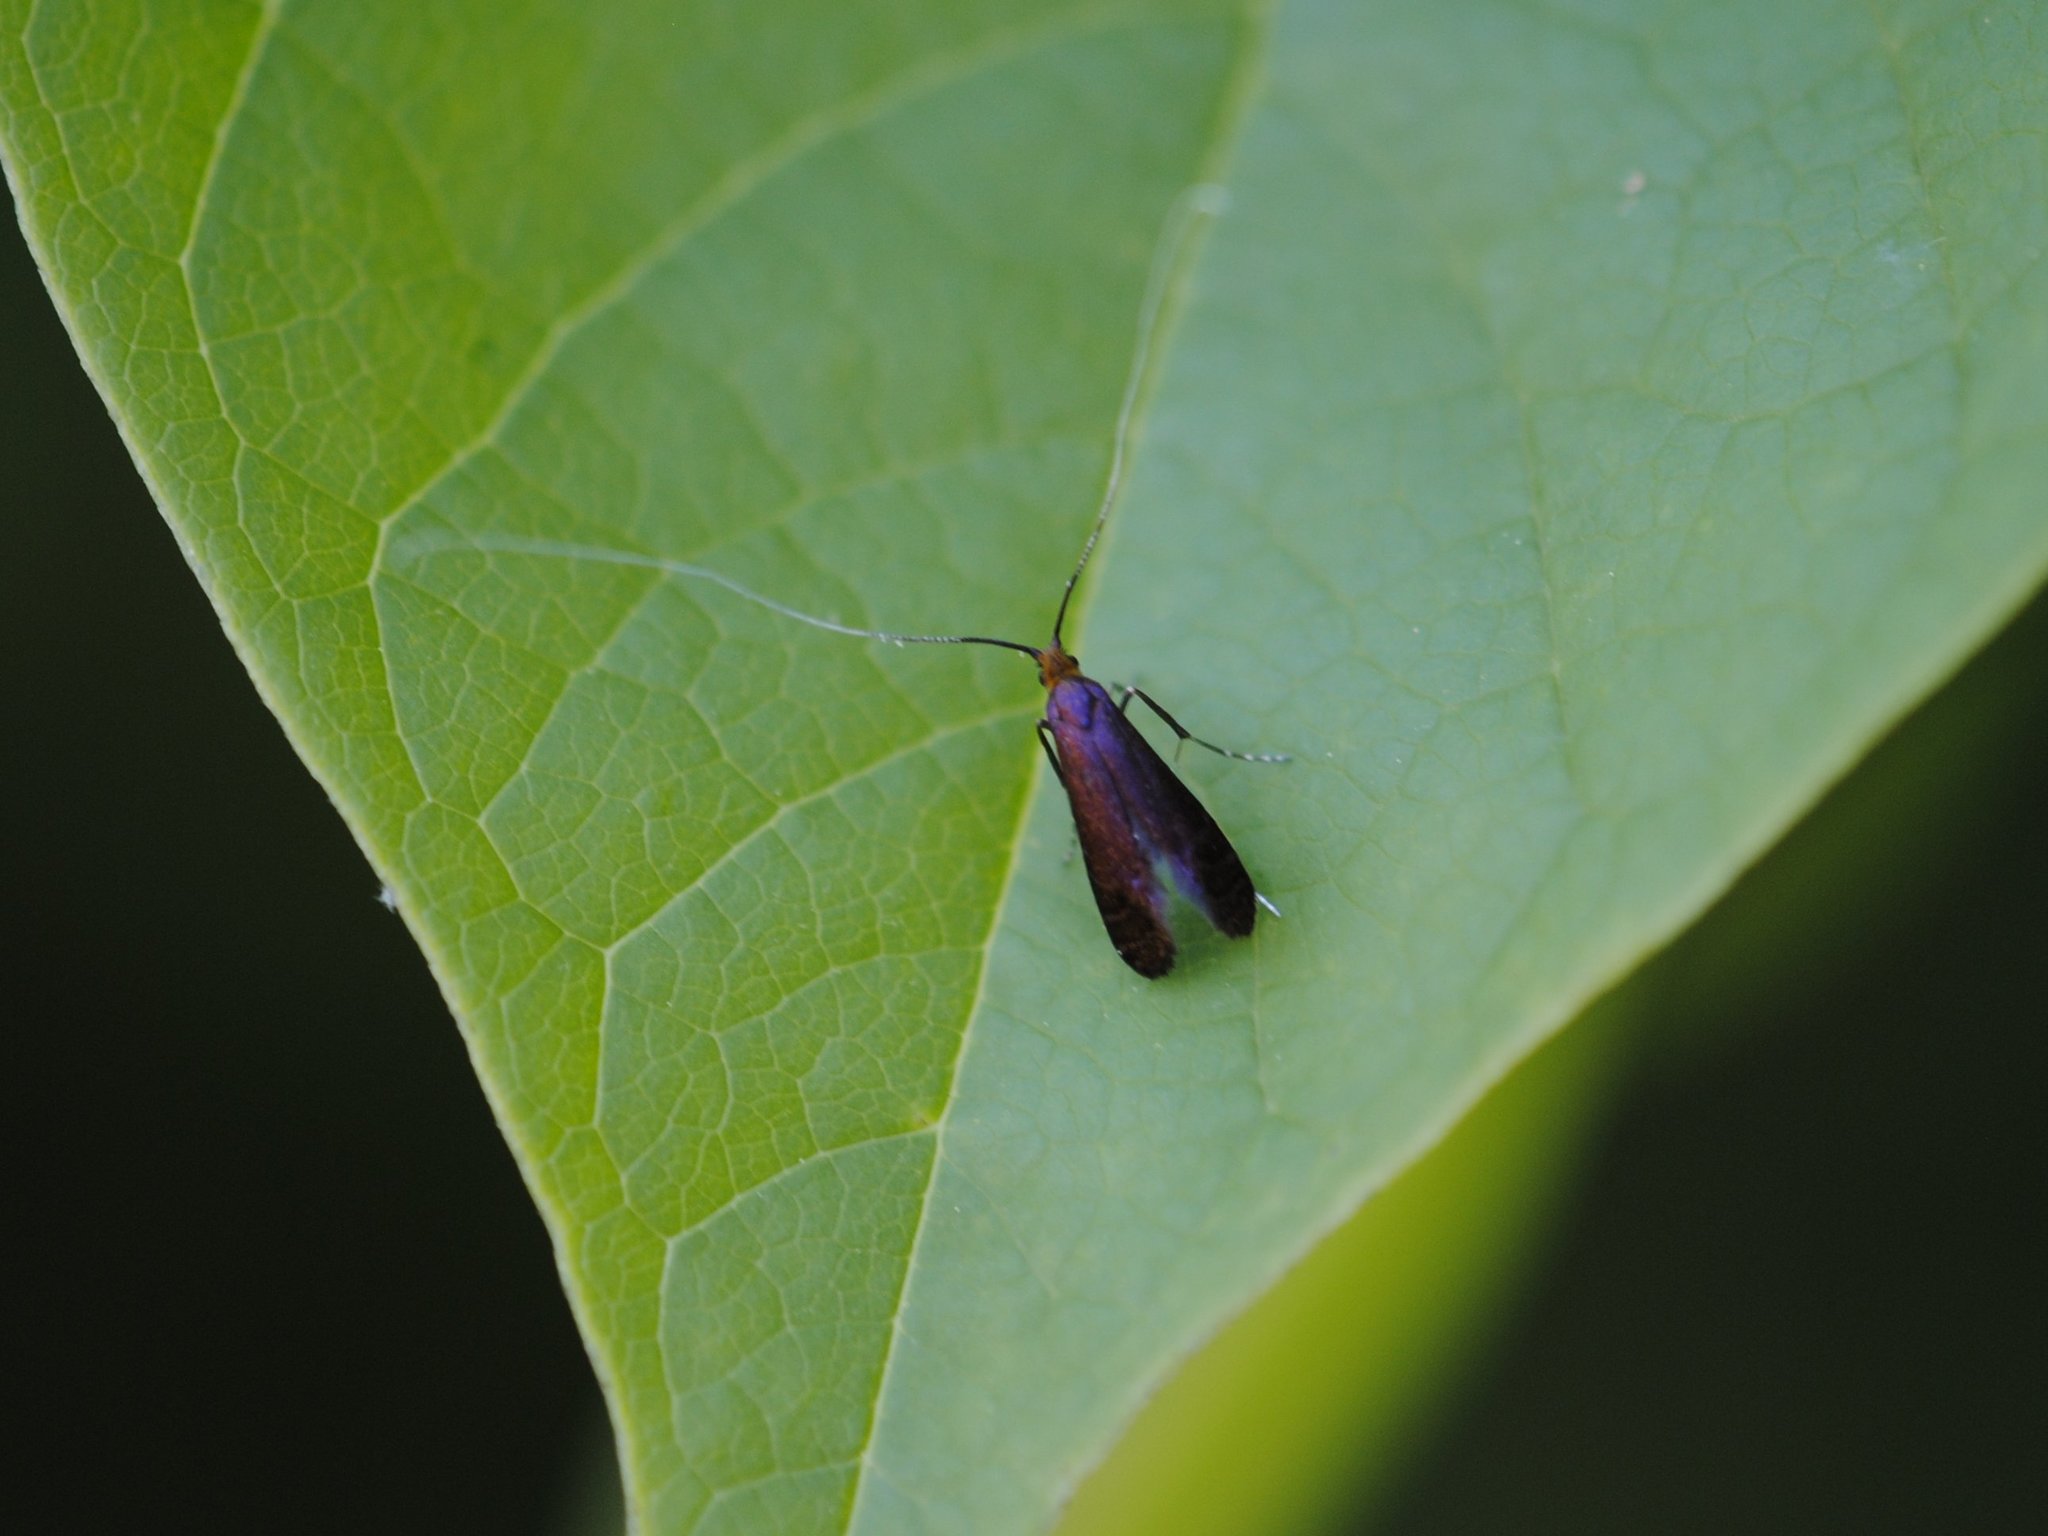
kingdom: Animalia
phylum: Arthropoda
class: Insecta
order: Lepidoptera
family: Adelidae
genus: Adela
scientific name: Adela caeruleella
